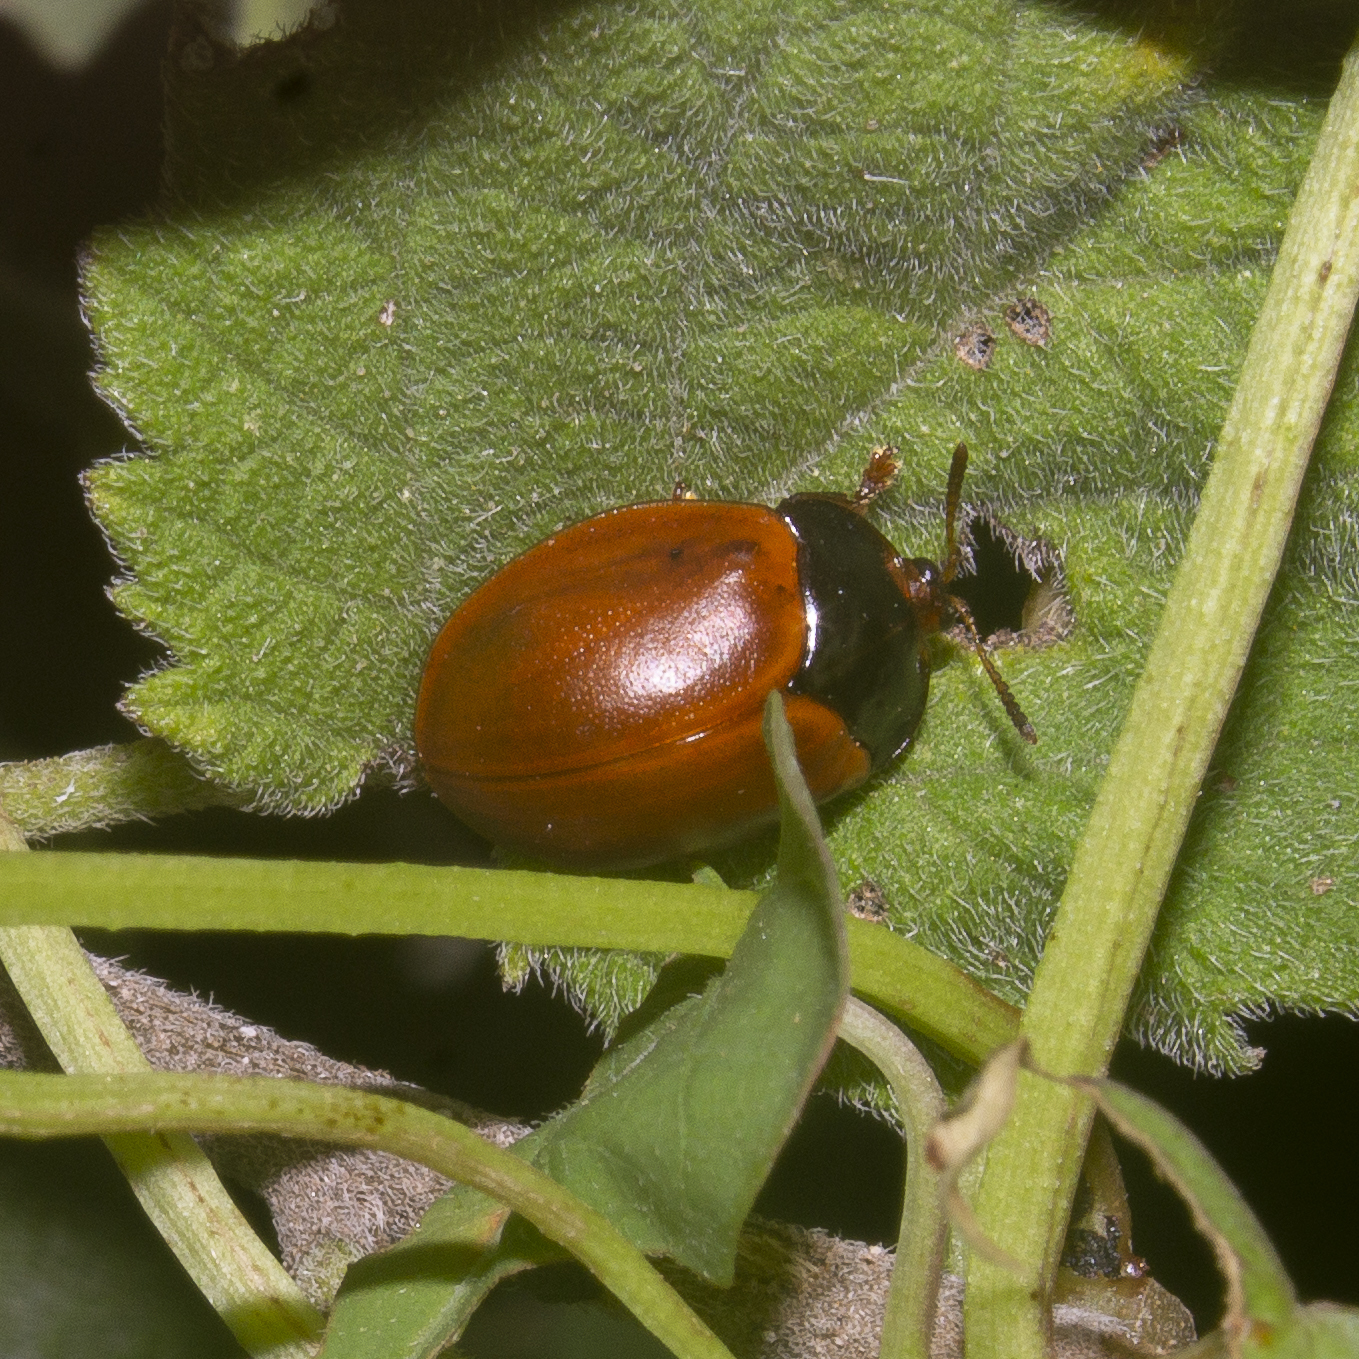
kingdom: Animalia
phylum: Arthropoda
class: Insecta
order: Coleoptera
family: Chrysomelidae
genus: Chelymorpha
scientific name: Chelymorpha cribraria
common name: Tortoise beetle
